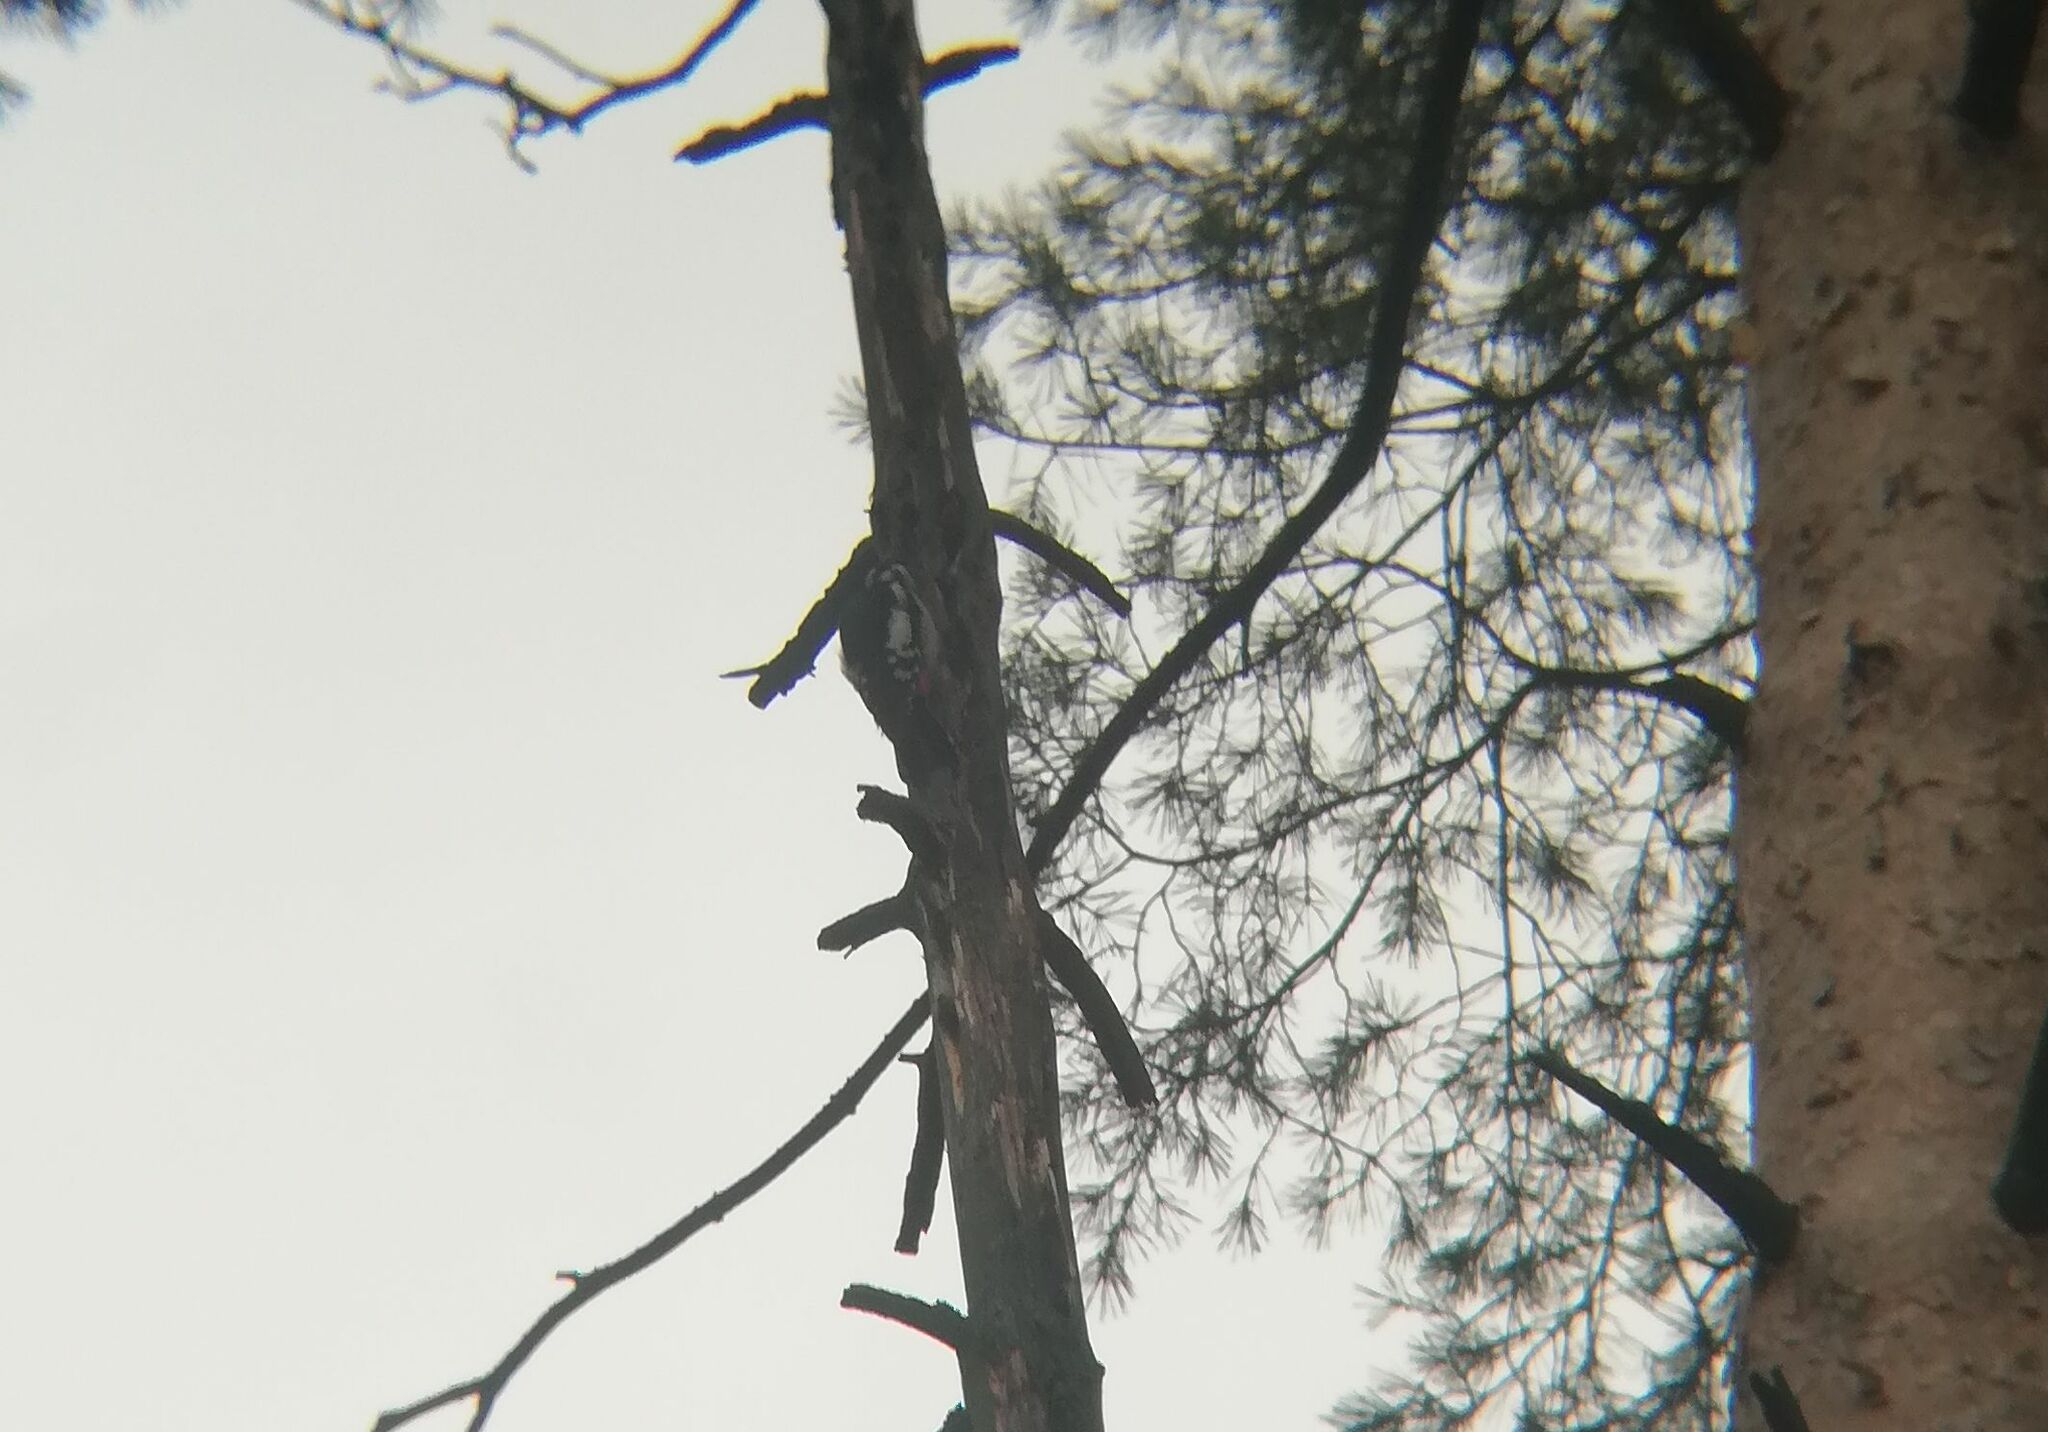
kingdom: Animalia
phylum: Chordata
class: Aves
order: Piciformes
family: Picidae
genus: Dendrocopos
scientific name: Dendrocopos major
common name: Great spotted woodpecker
